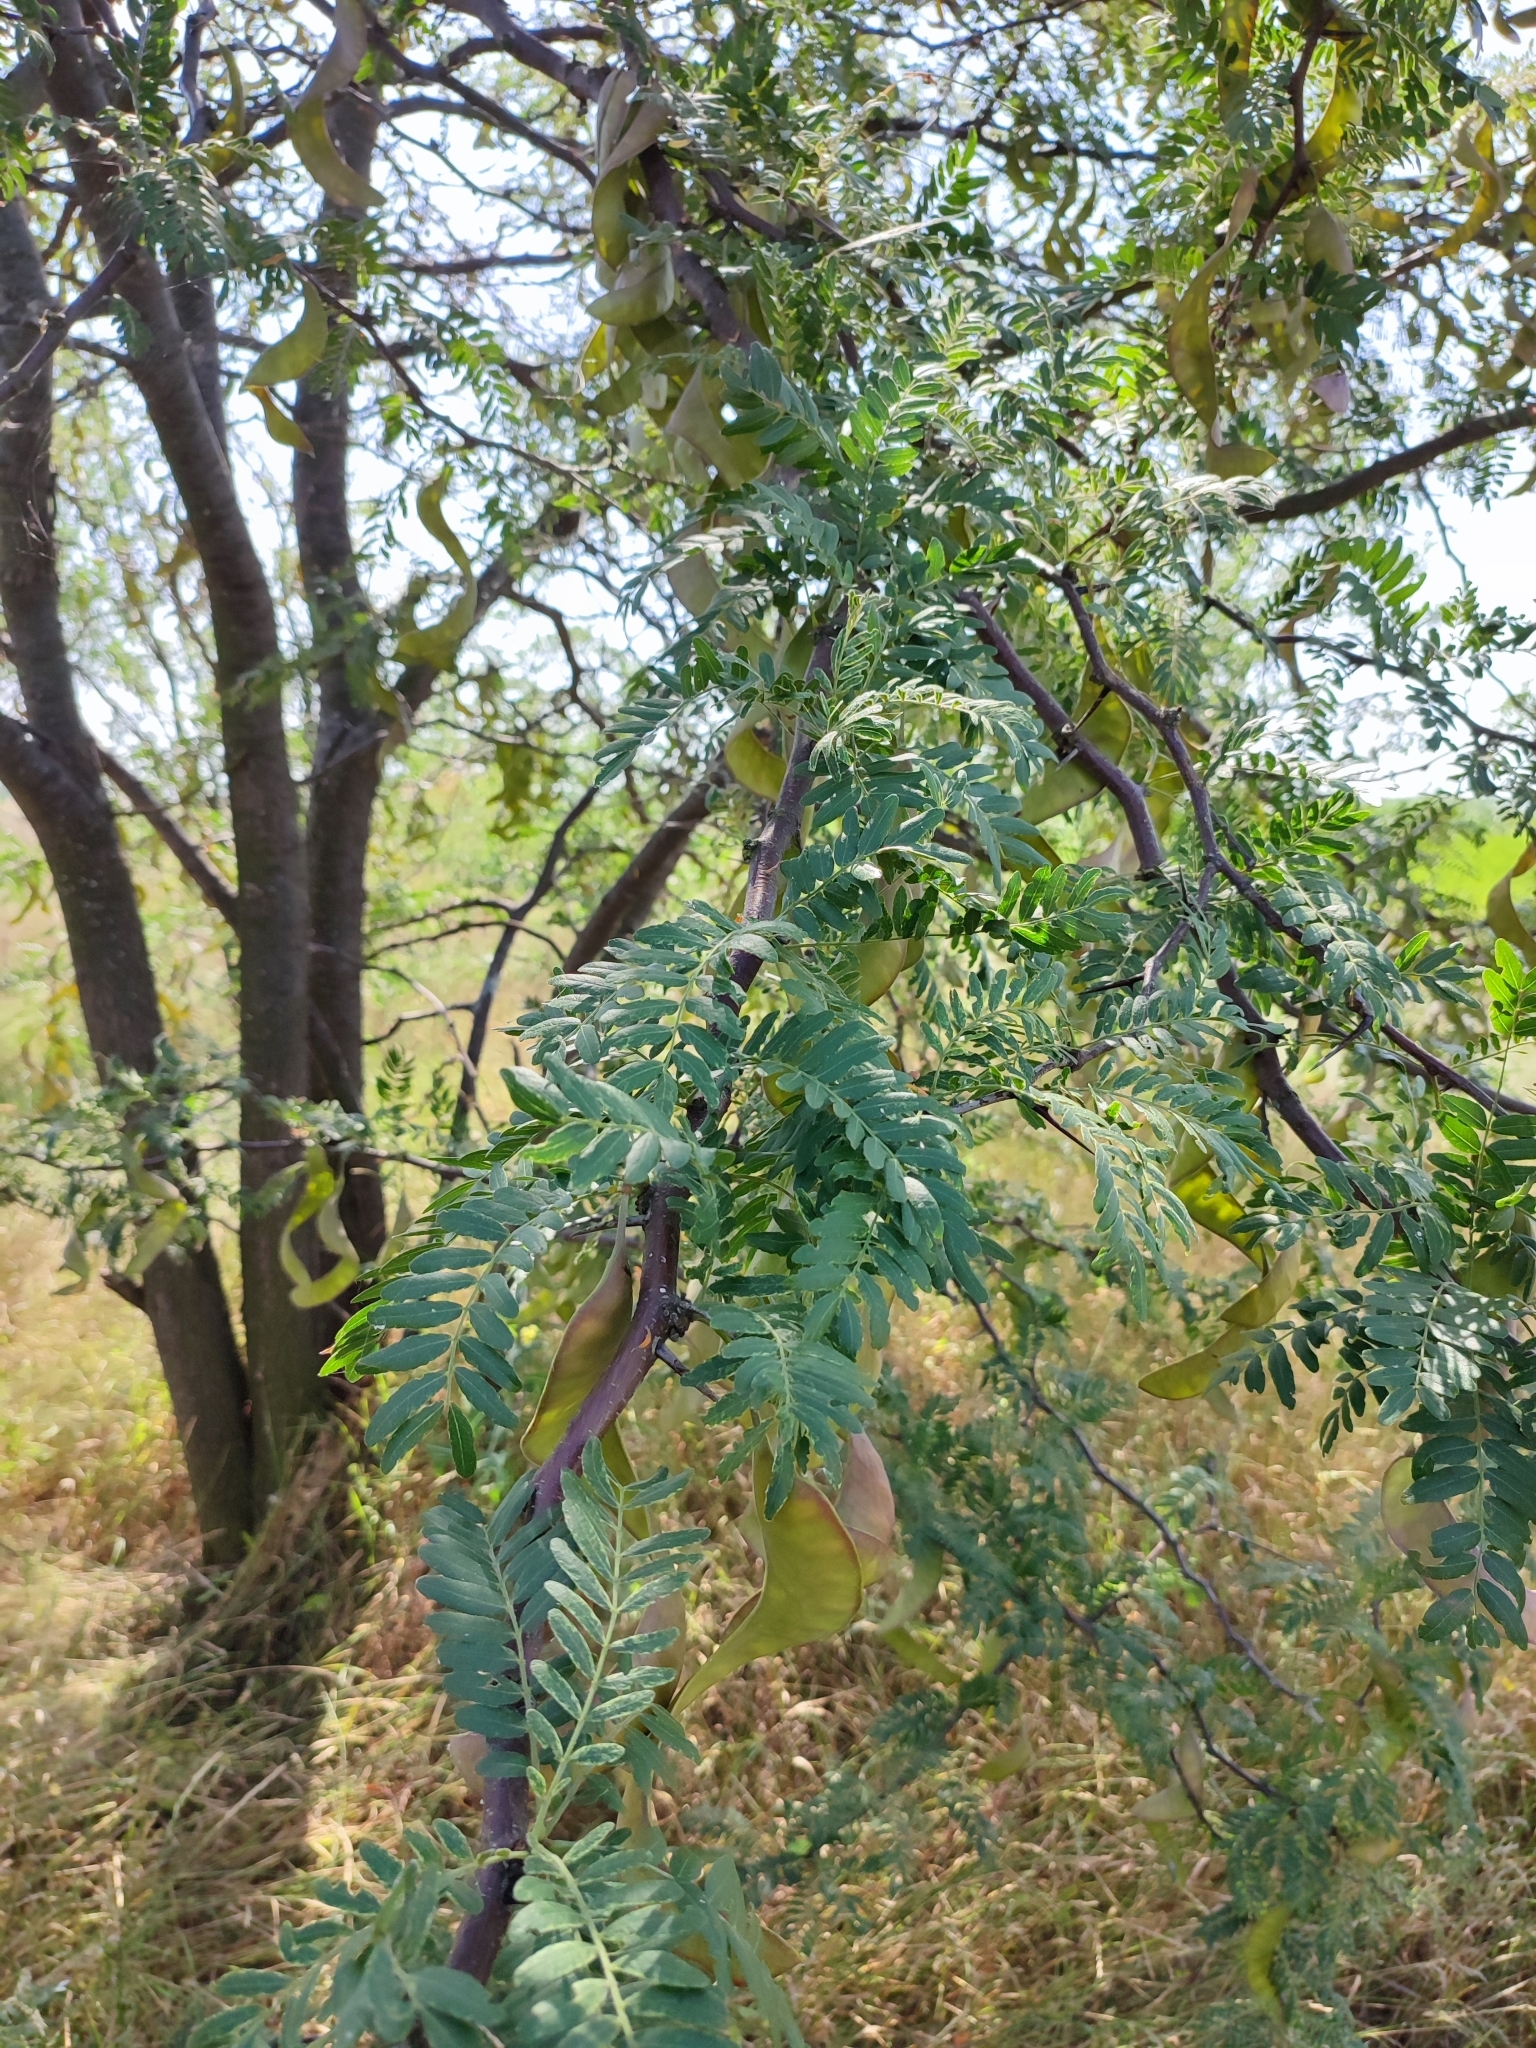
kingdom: Plantae
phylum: Tracheophyta
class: Magnoliopsida
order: Fabales
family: Fabaceae
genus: Gleditsia
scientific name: Gleditsia triacanthos
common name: Common honeylocust
